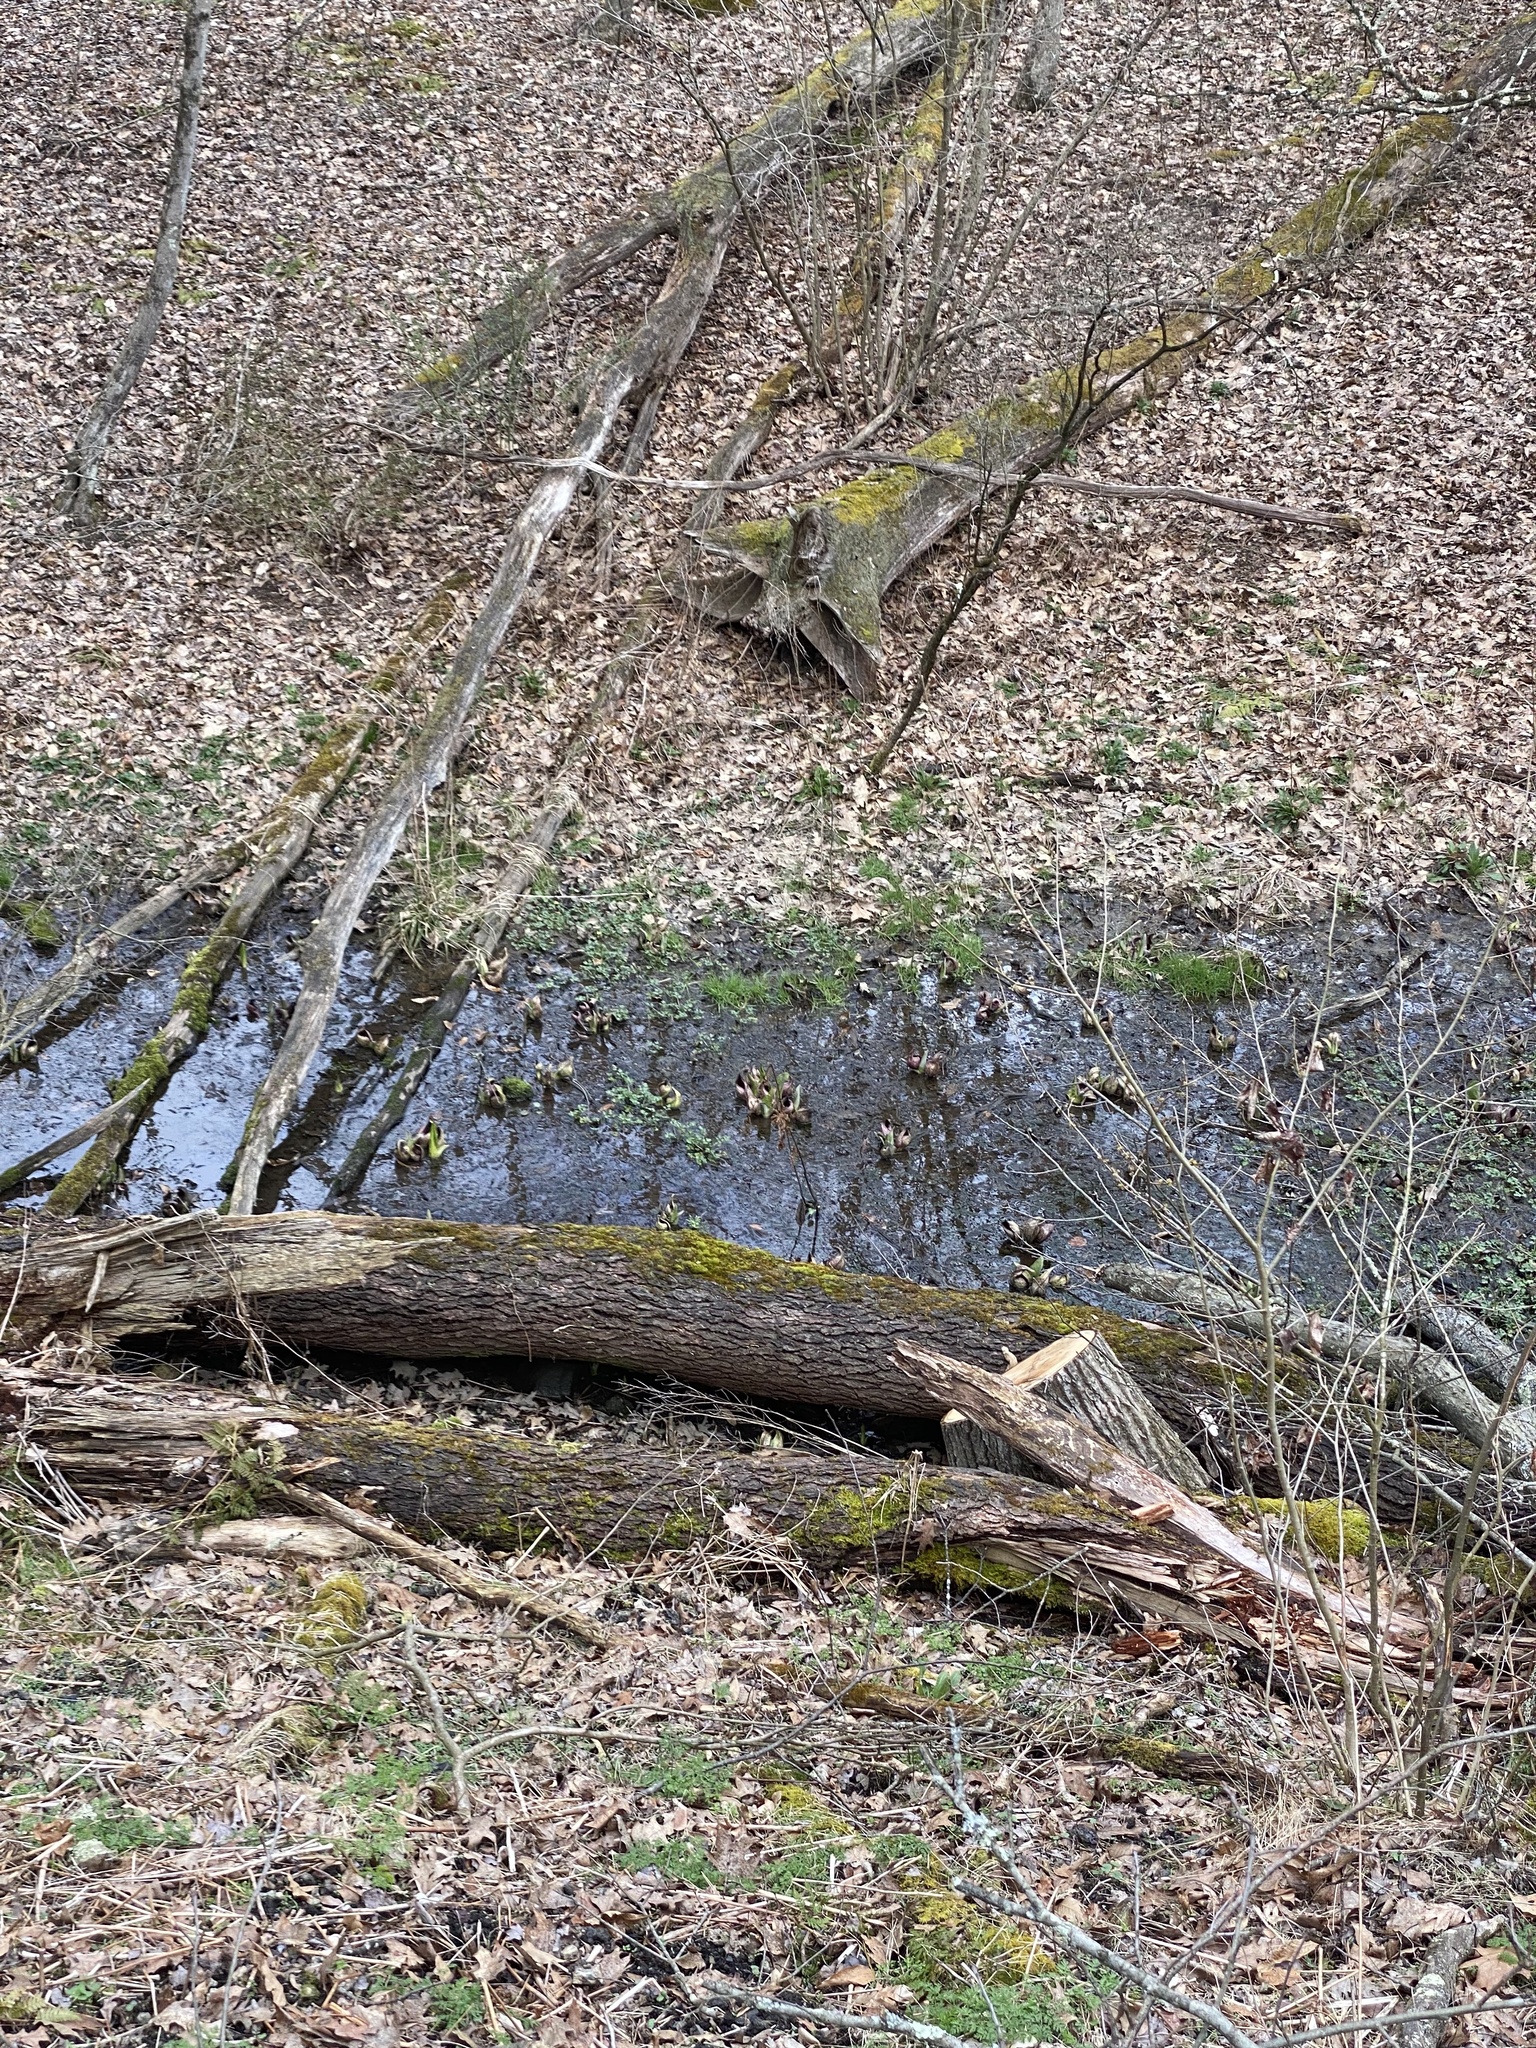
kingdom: Plantae
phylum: Tracheophyta
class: Liliopsida
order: Alismatales
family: Araceae
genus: Symplocarpus
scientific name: Symplocarpus foetidus
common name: Eastern skunk cabbage
